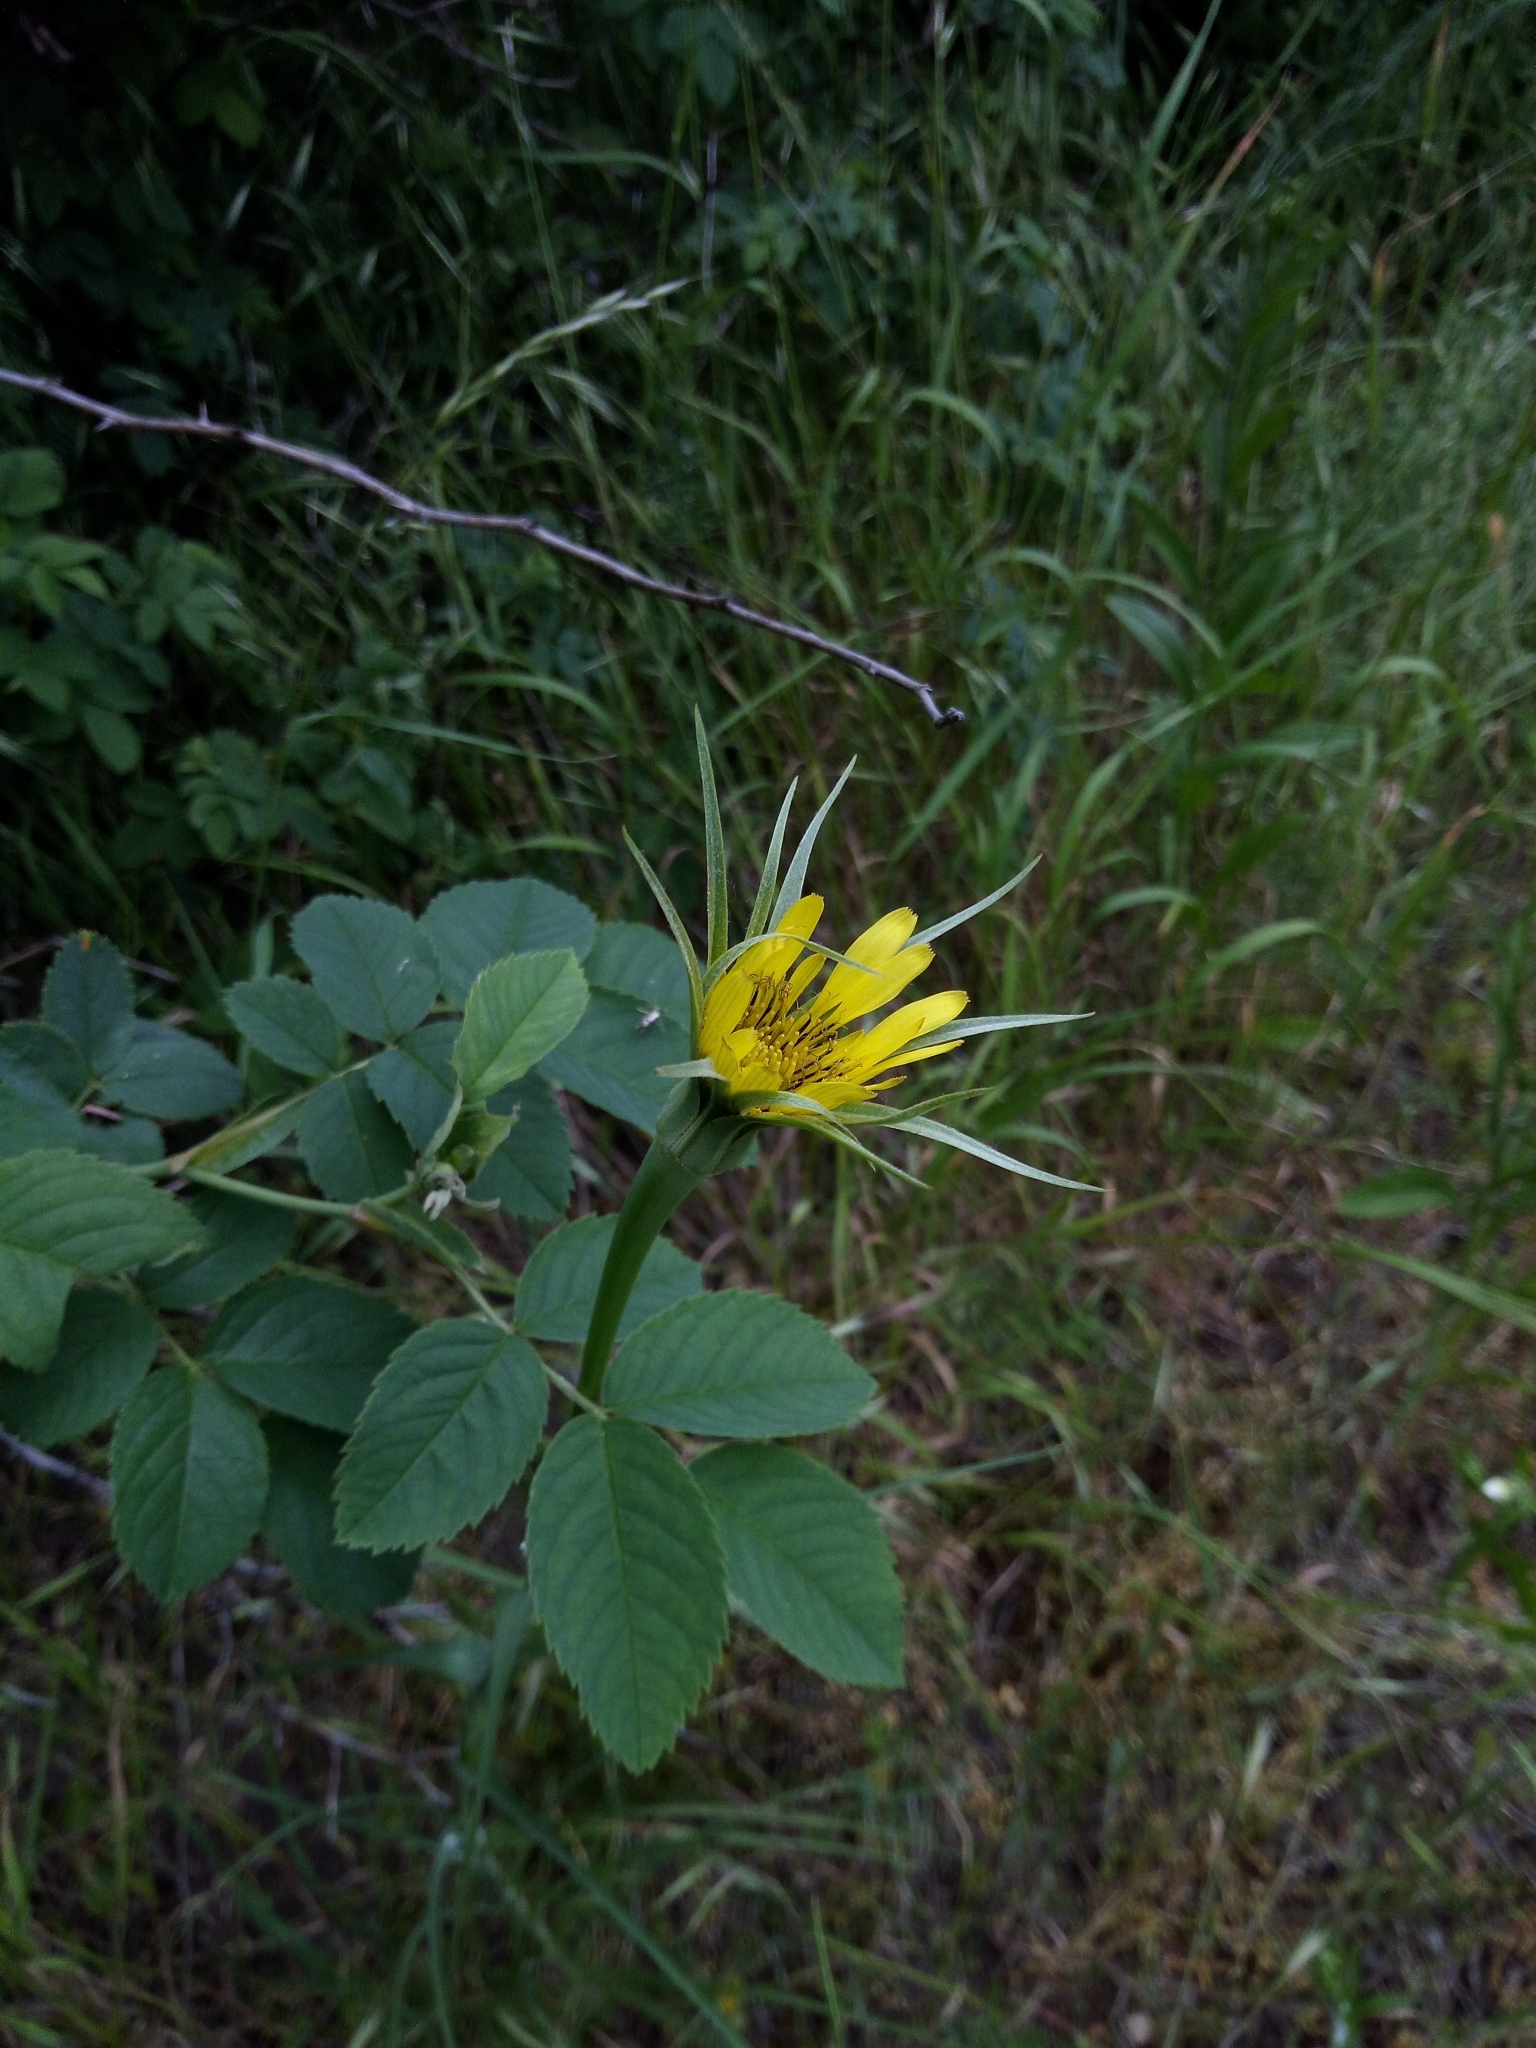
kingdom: Plantae
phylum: Tracheophyta
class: Magnoliopsida
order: Asterales
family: Asteraceae
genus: Tragopogon
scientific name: Tragopogon dubius
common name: Yellow salsify
